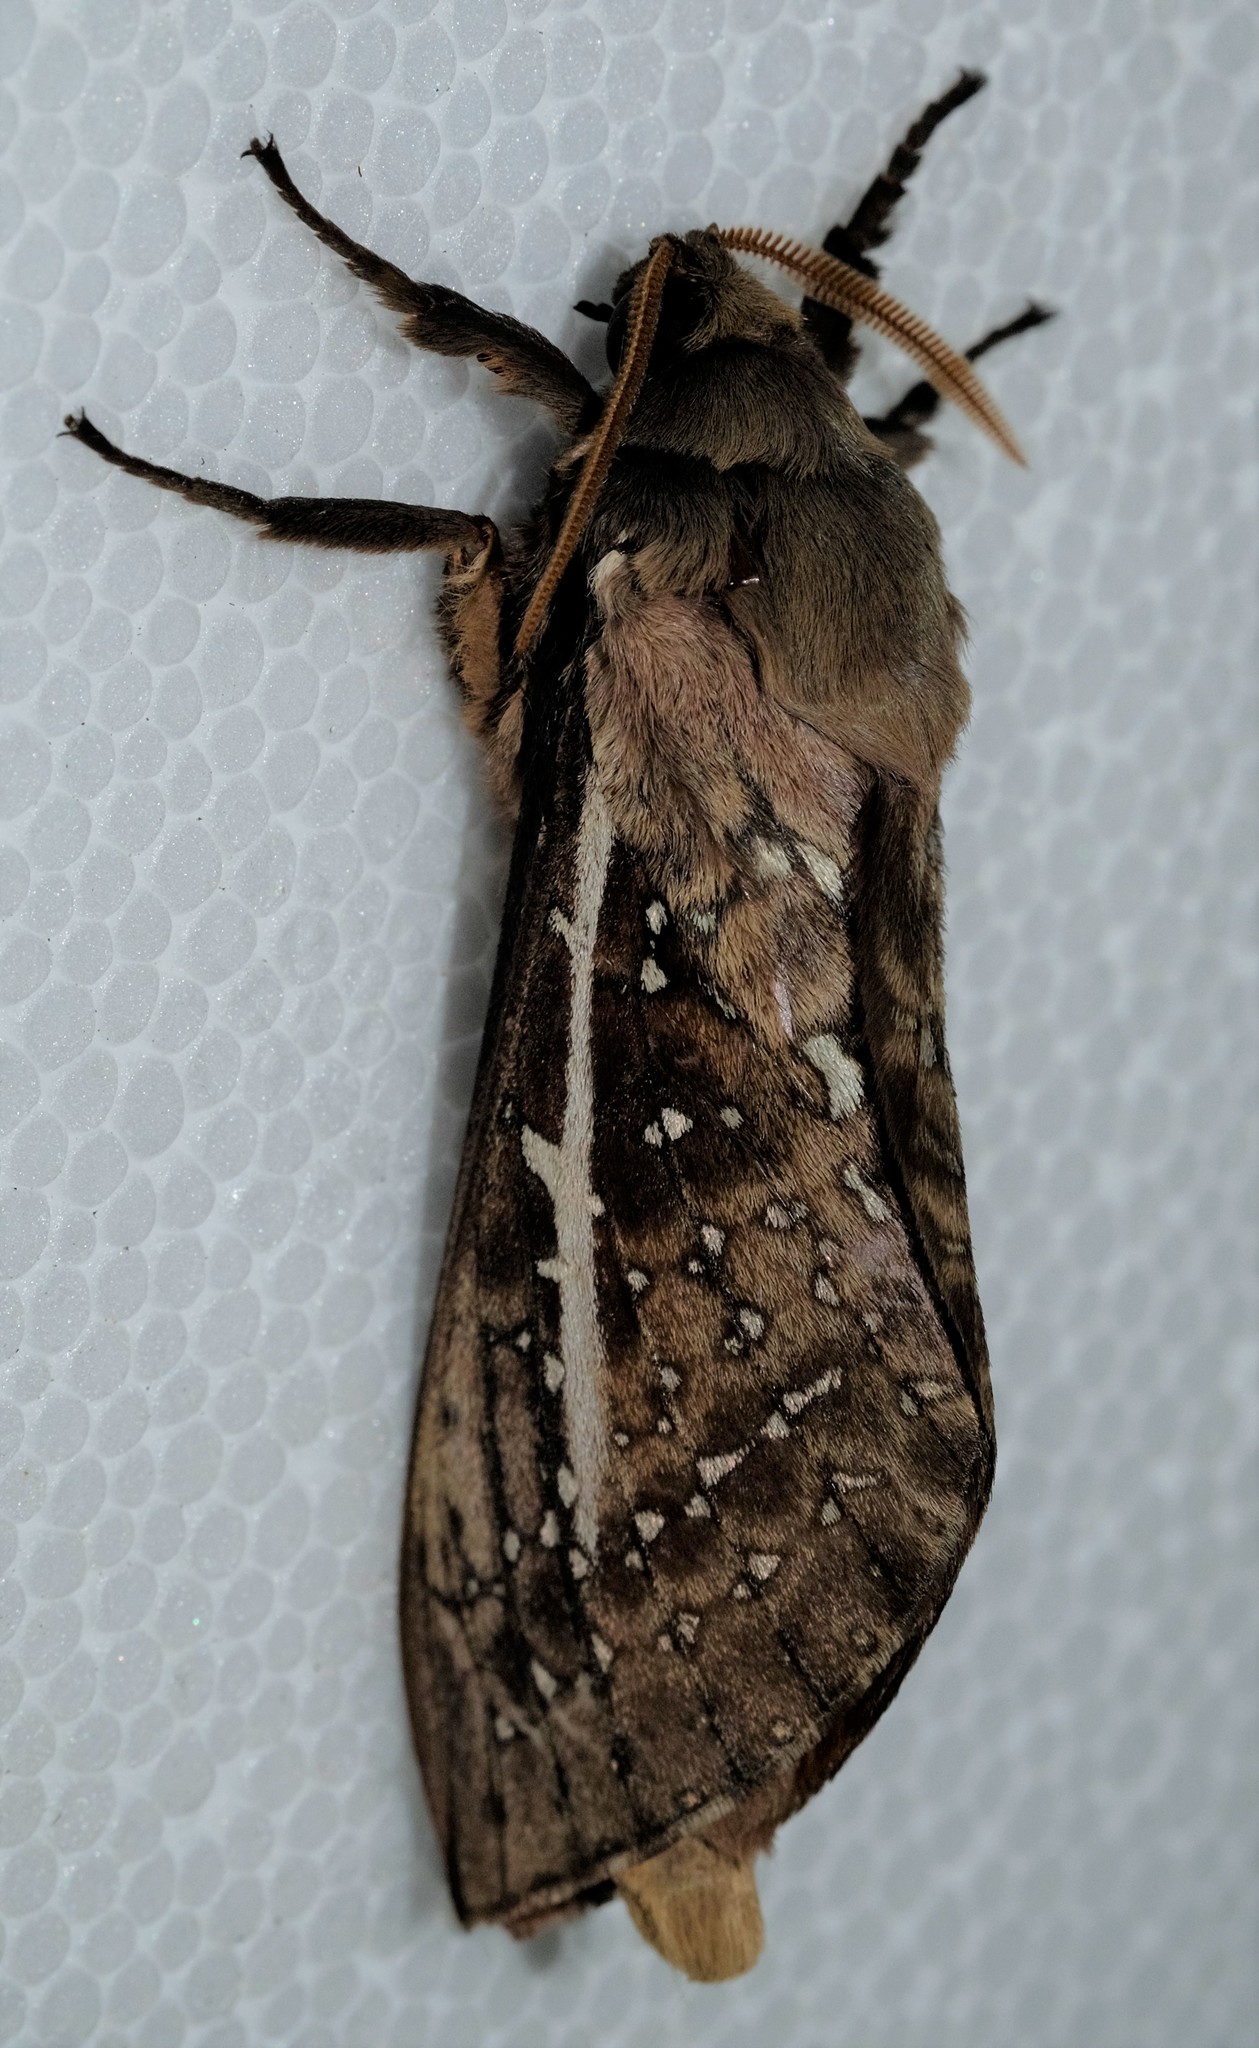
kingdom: Animalia
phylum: Arthropoda
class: Insecta
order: Lepidoptera
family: Hepialidae
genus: Oxycanus
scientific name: Oxycanus australis
